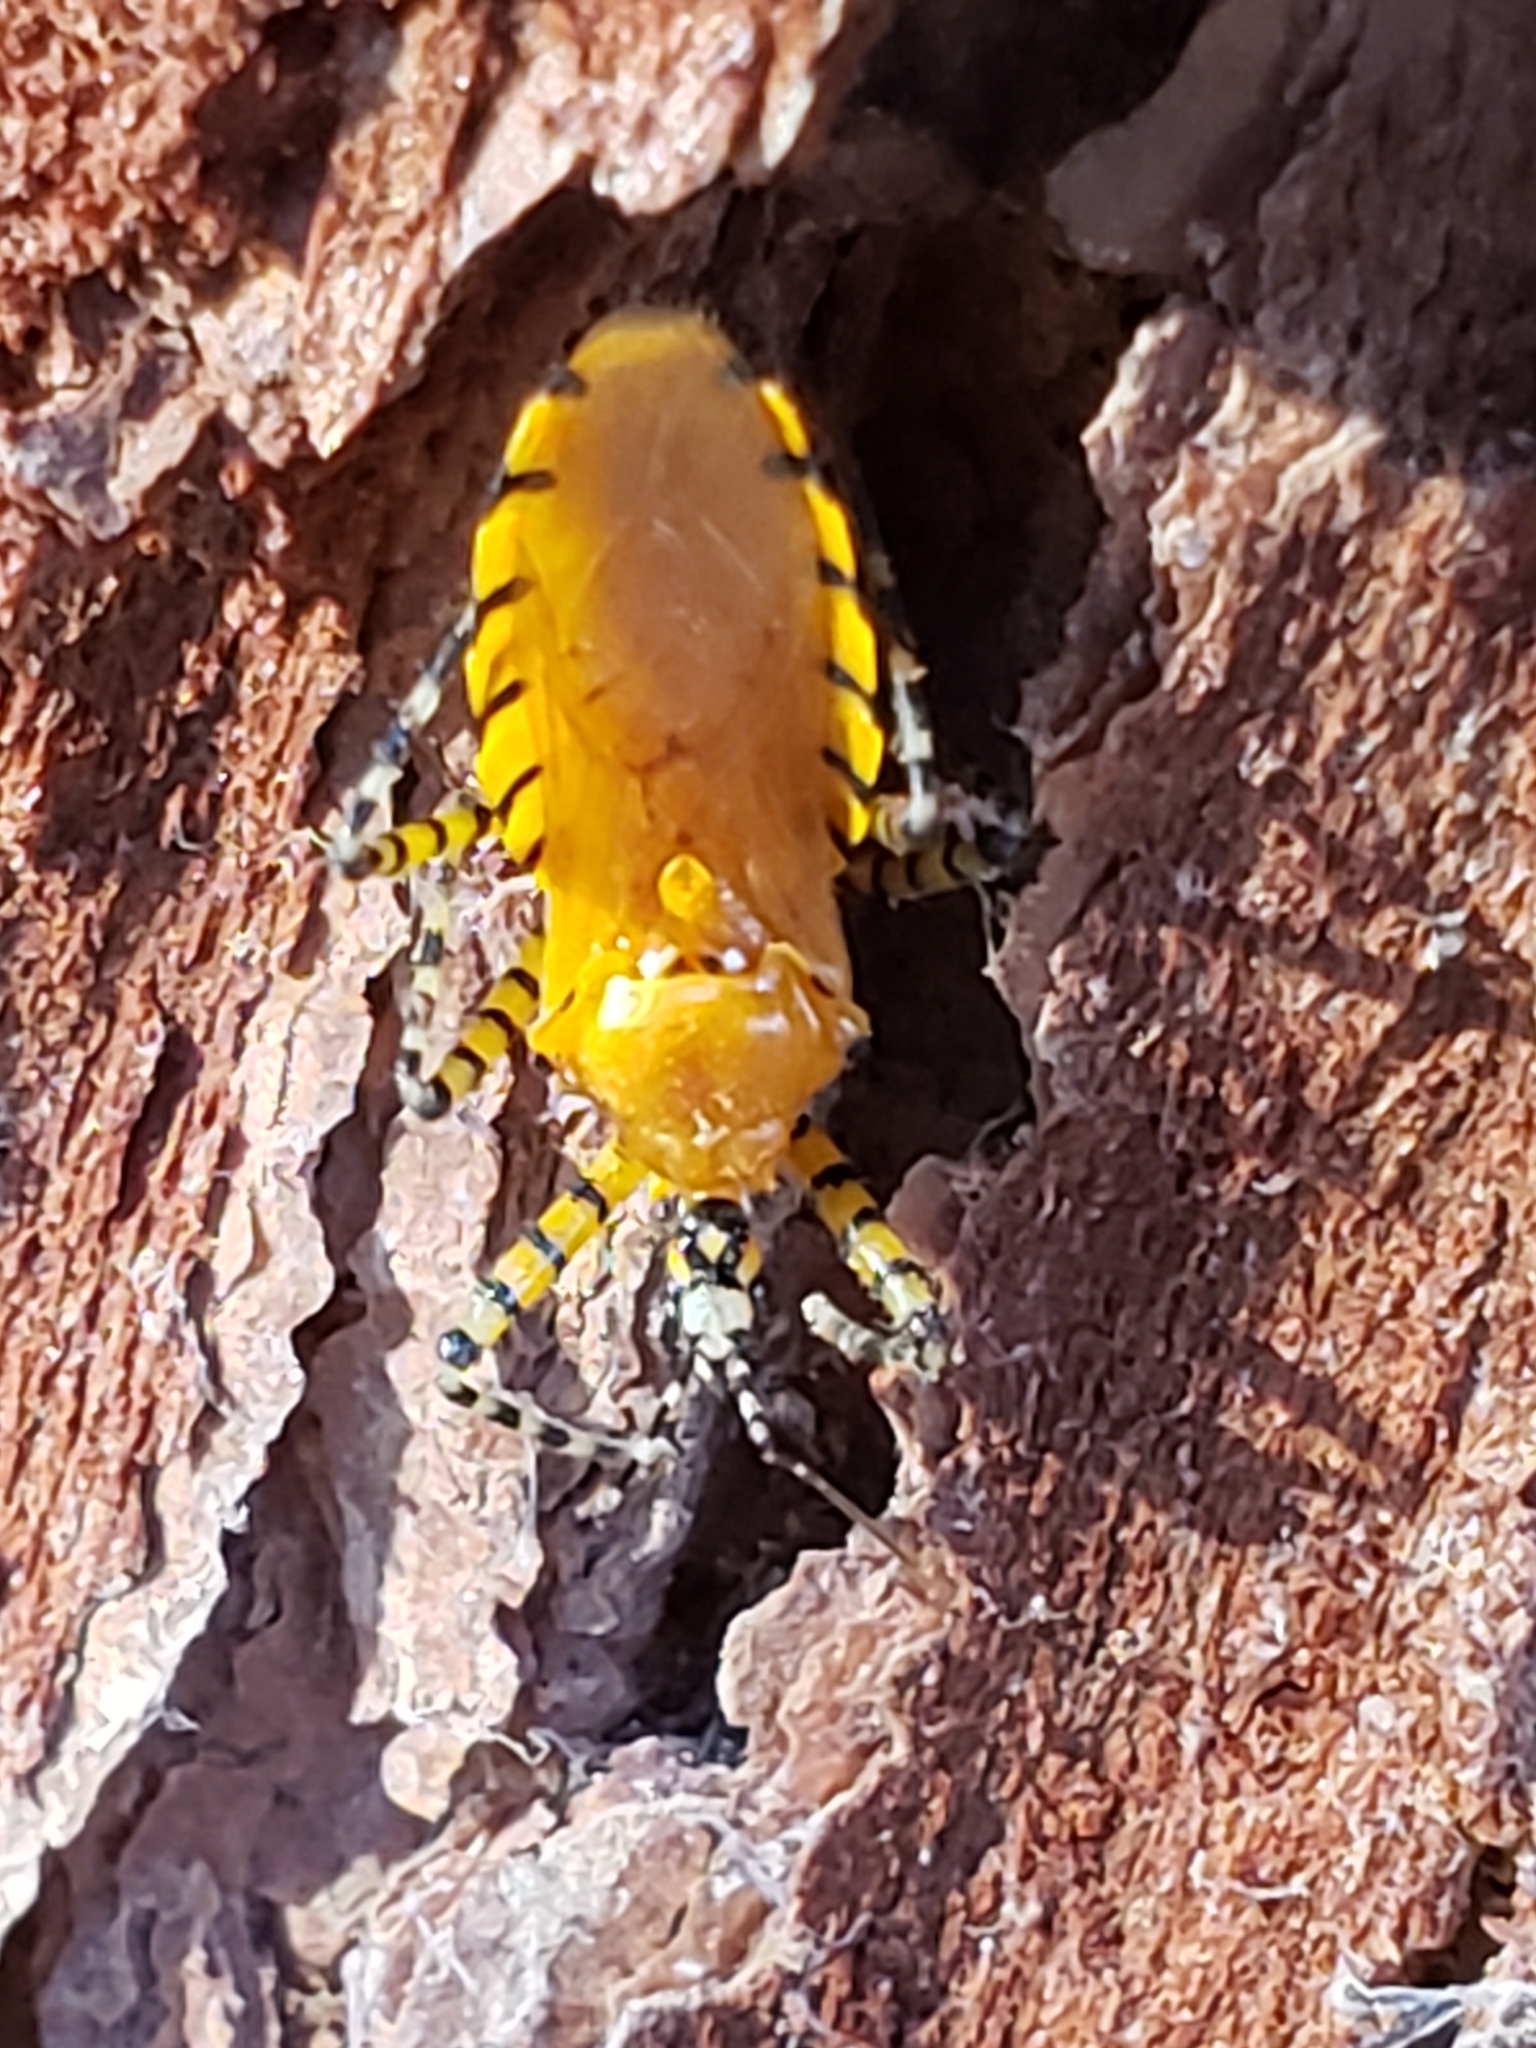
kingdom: Animalia
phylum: Arthropoda
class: Insecta
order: Hemiptera
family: Reduviidae
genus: Pselliopus
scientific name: Pselliopus barberi
